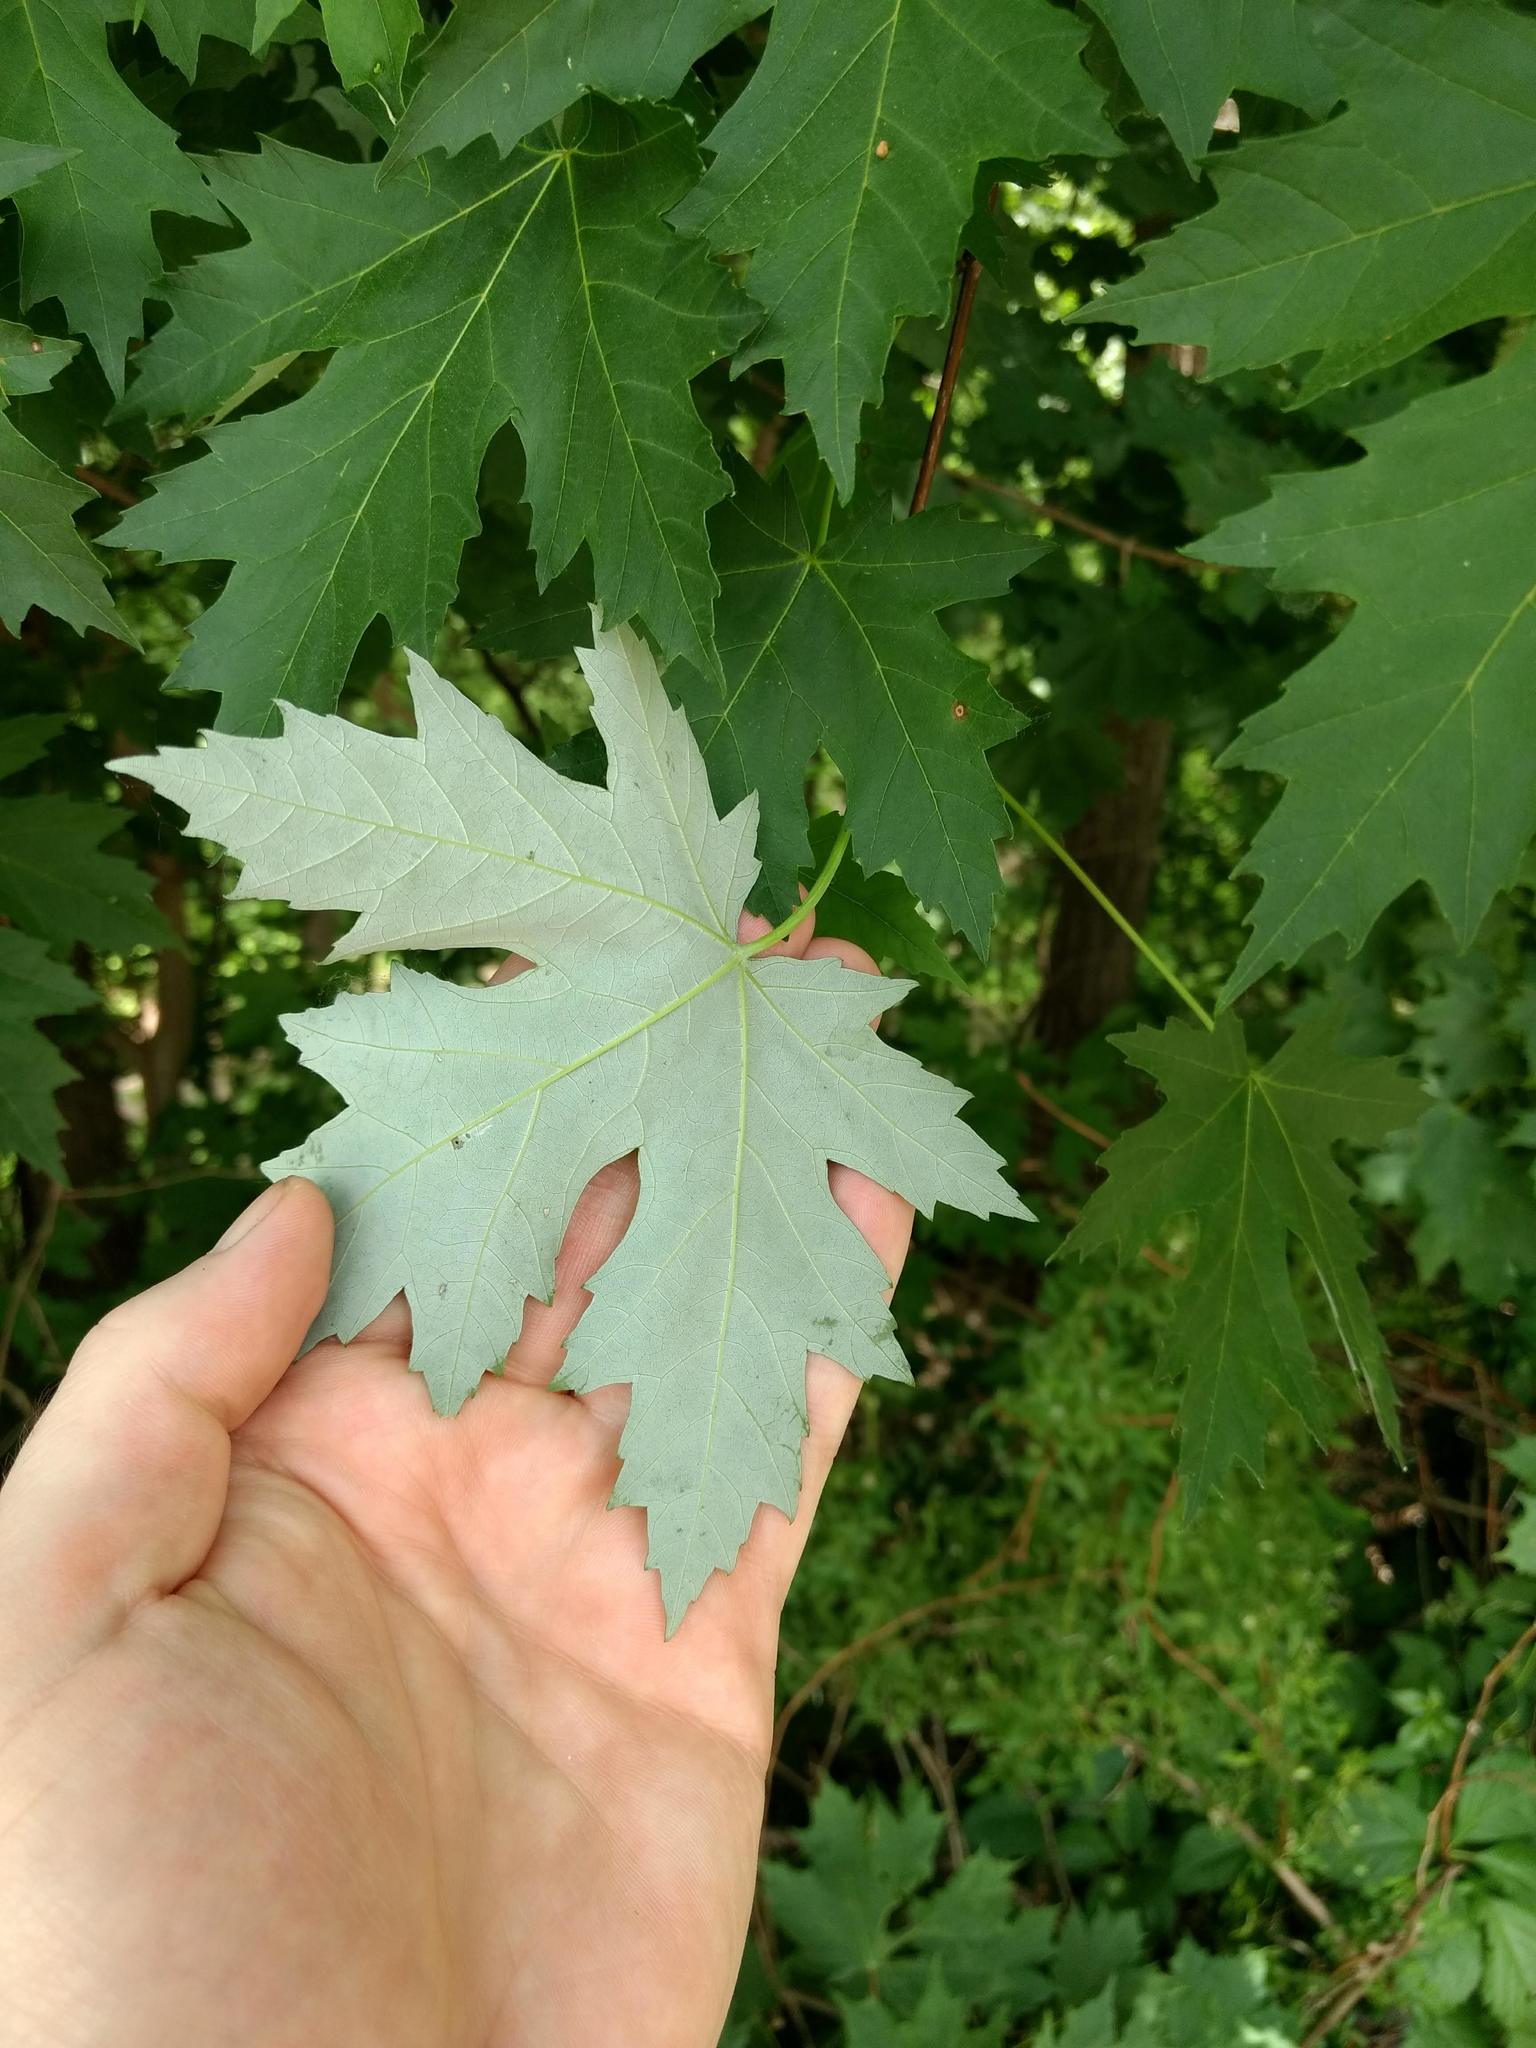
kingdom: Plantae
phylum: Tracheophyta
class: Magnoliopsida
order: Sapindales
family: Sapindaceae
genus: Acer
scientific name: Acer saccharinum
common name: Silver maple
